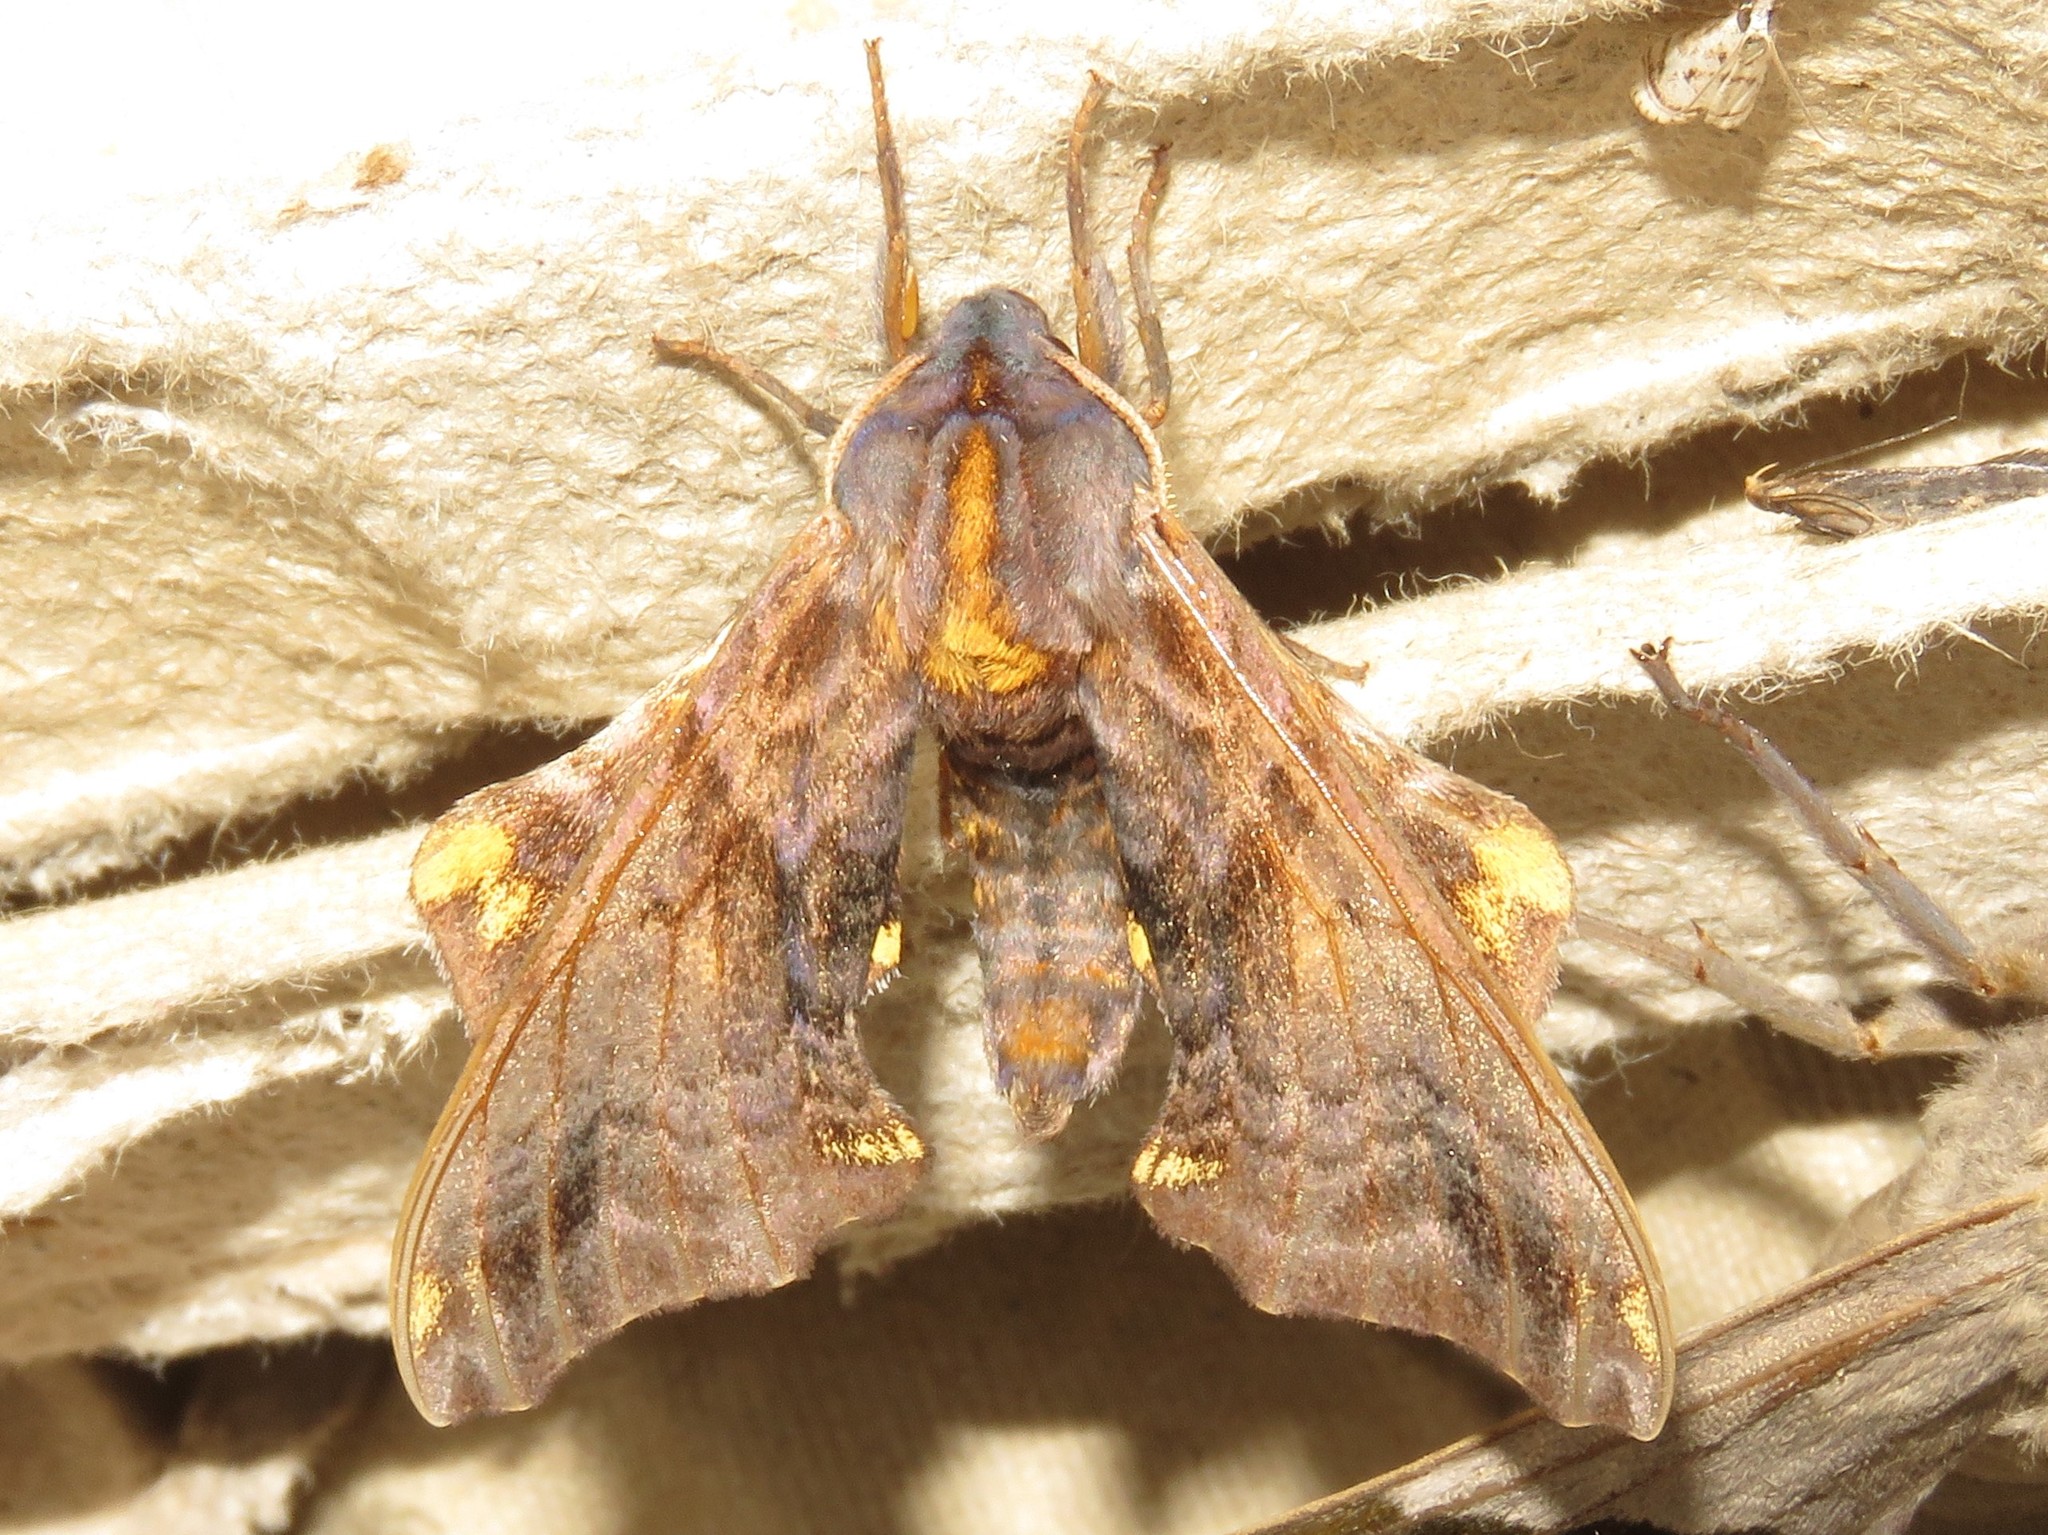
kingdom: Animalia
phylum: Arthropoda
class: Insecta
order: Lepidoptera
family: Sphingidae
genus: Paonias
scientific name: Paonias myops
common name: Small-eyed sphinx
